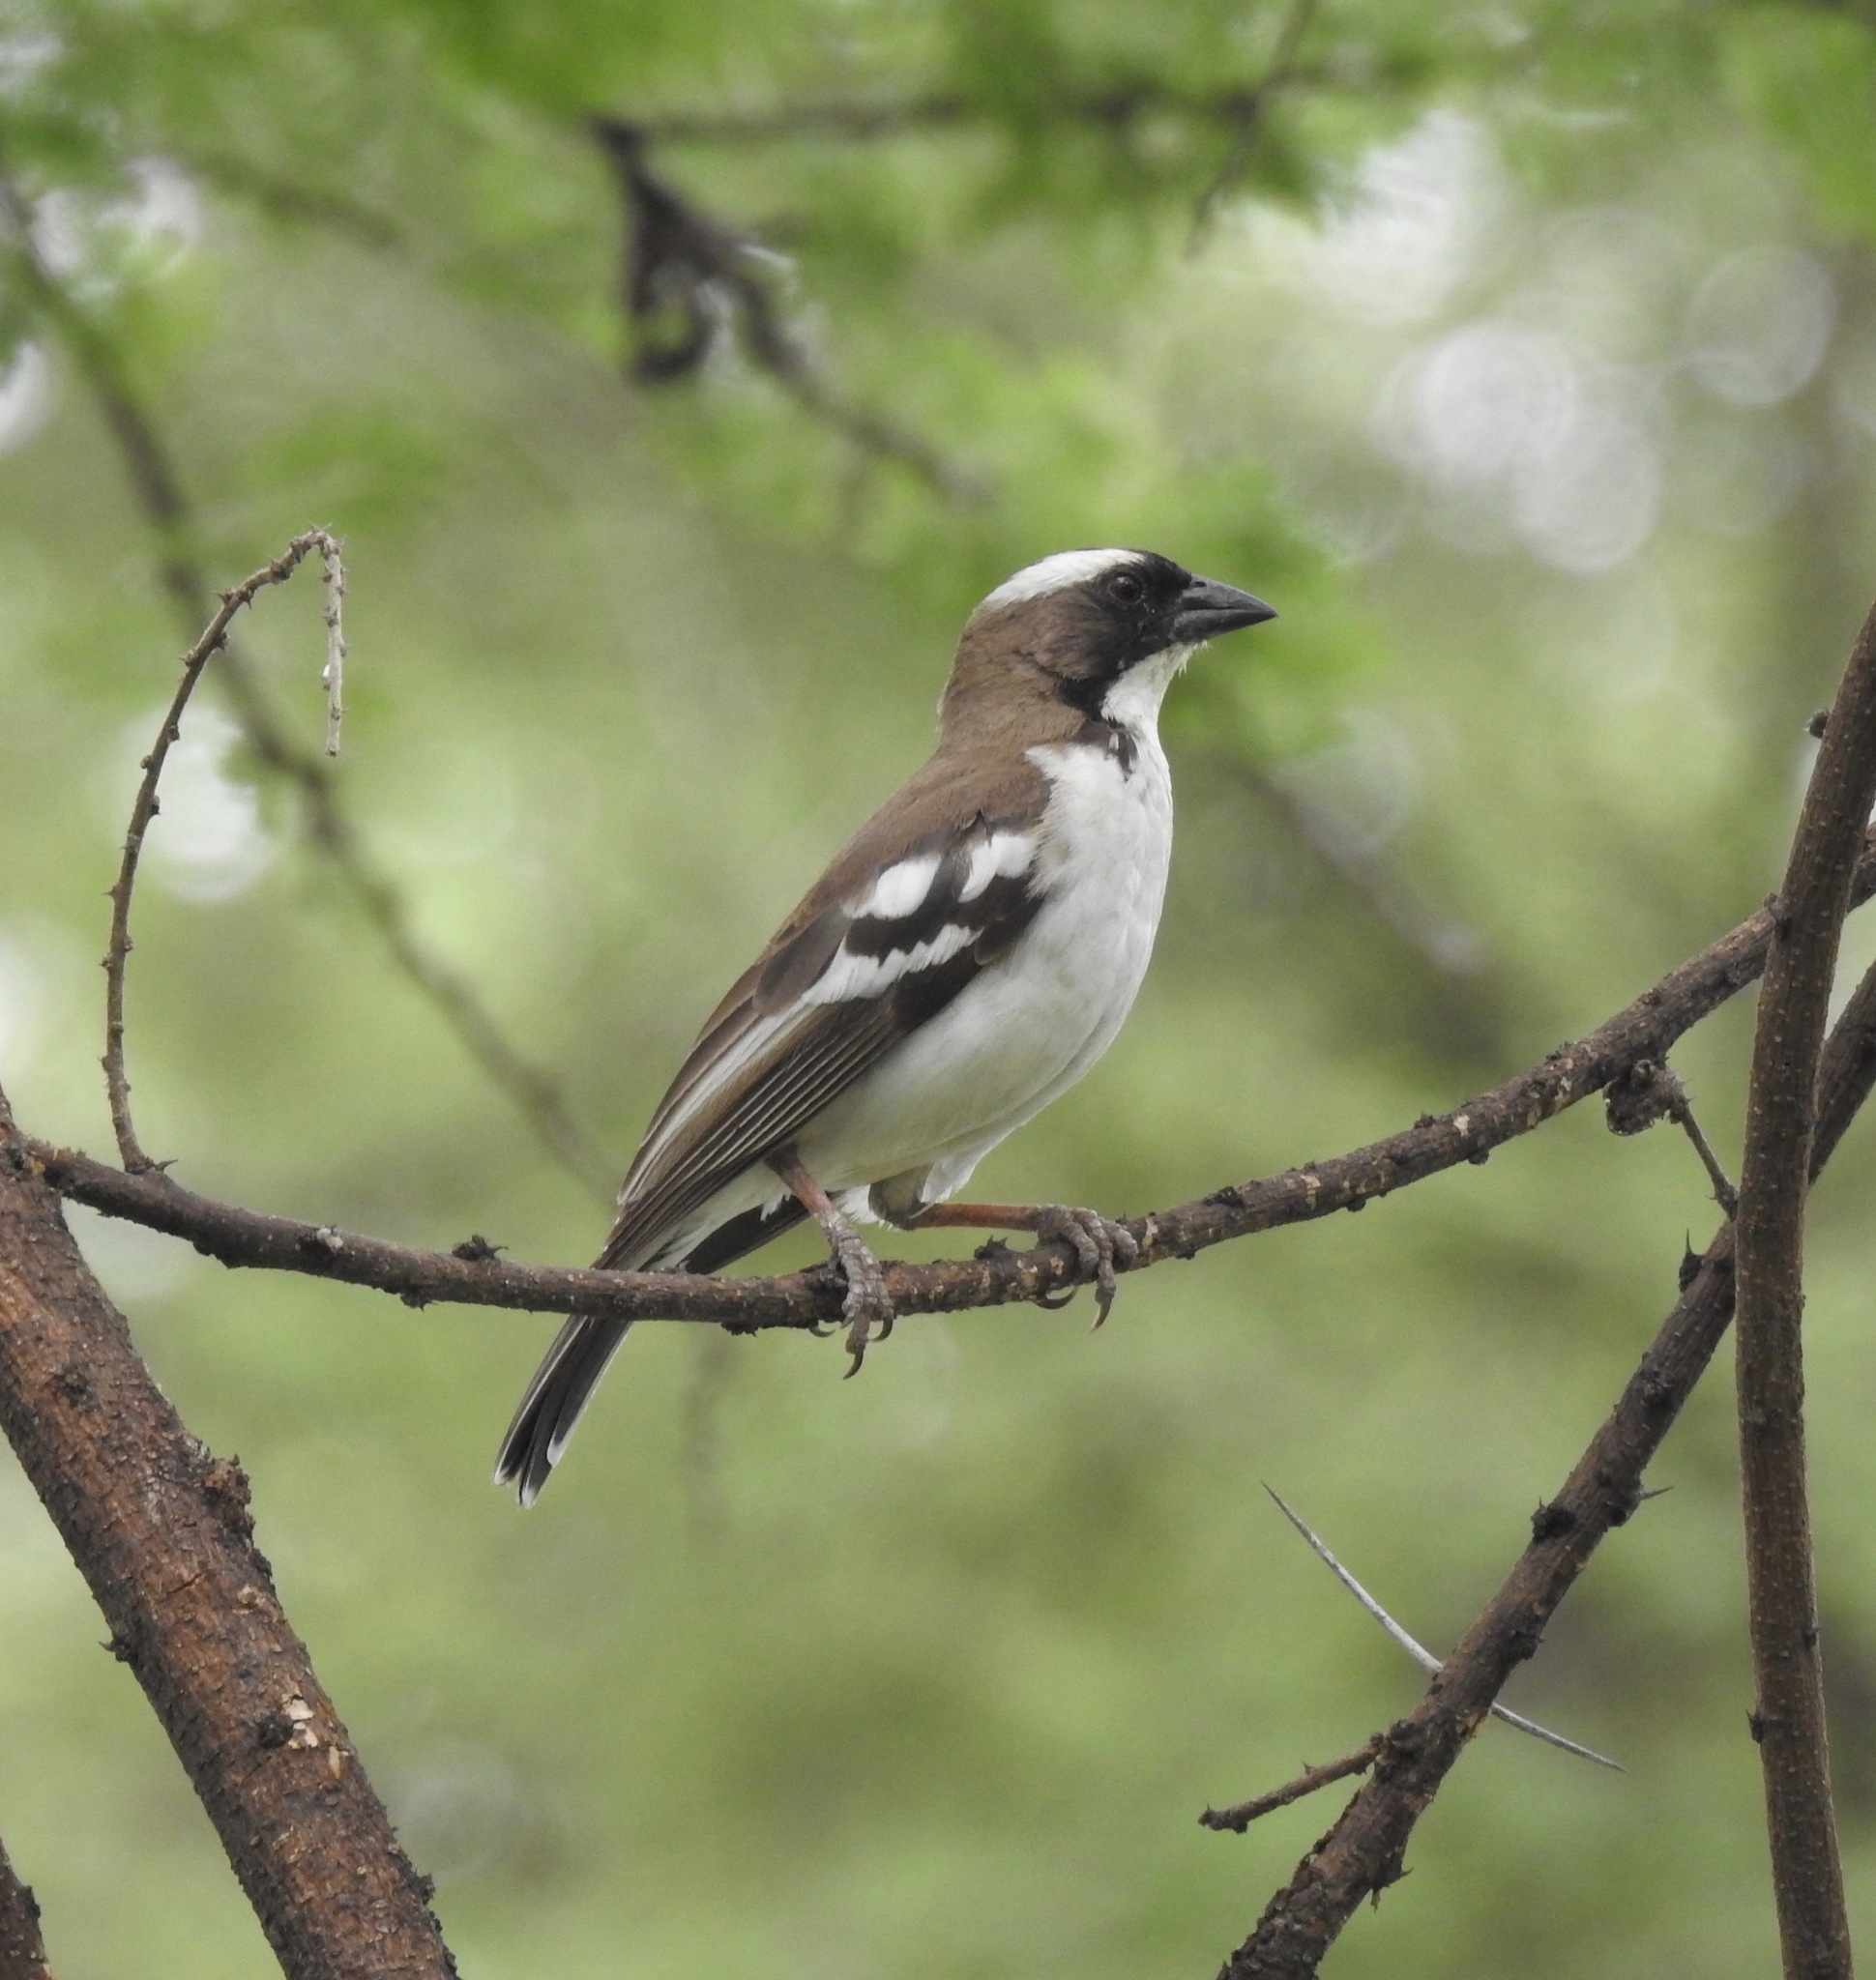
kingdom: Animalia
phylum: Chordata
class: Aves
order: Passeriformes
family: Passeridae
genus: Plocepasser
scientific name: Plocepasser mahali
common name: White-browed sparrow-weaver
